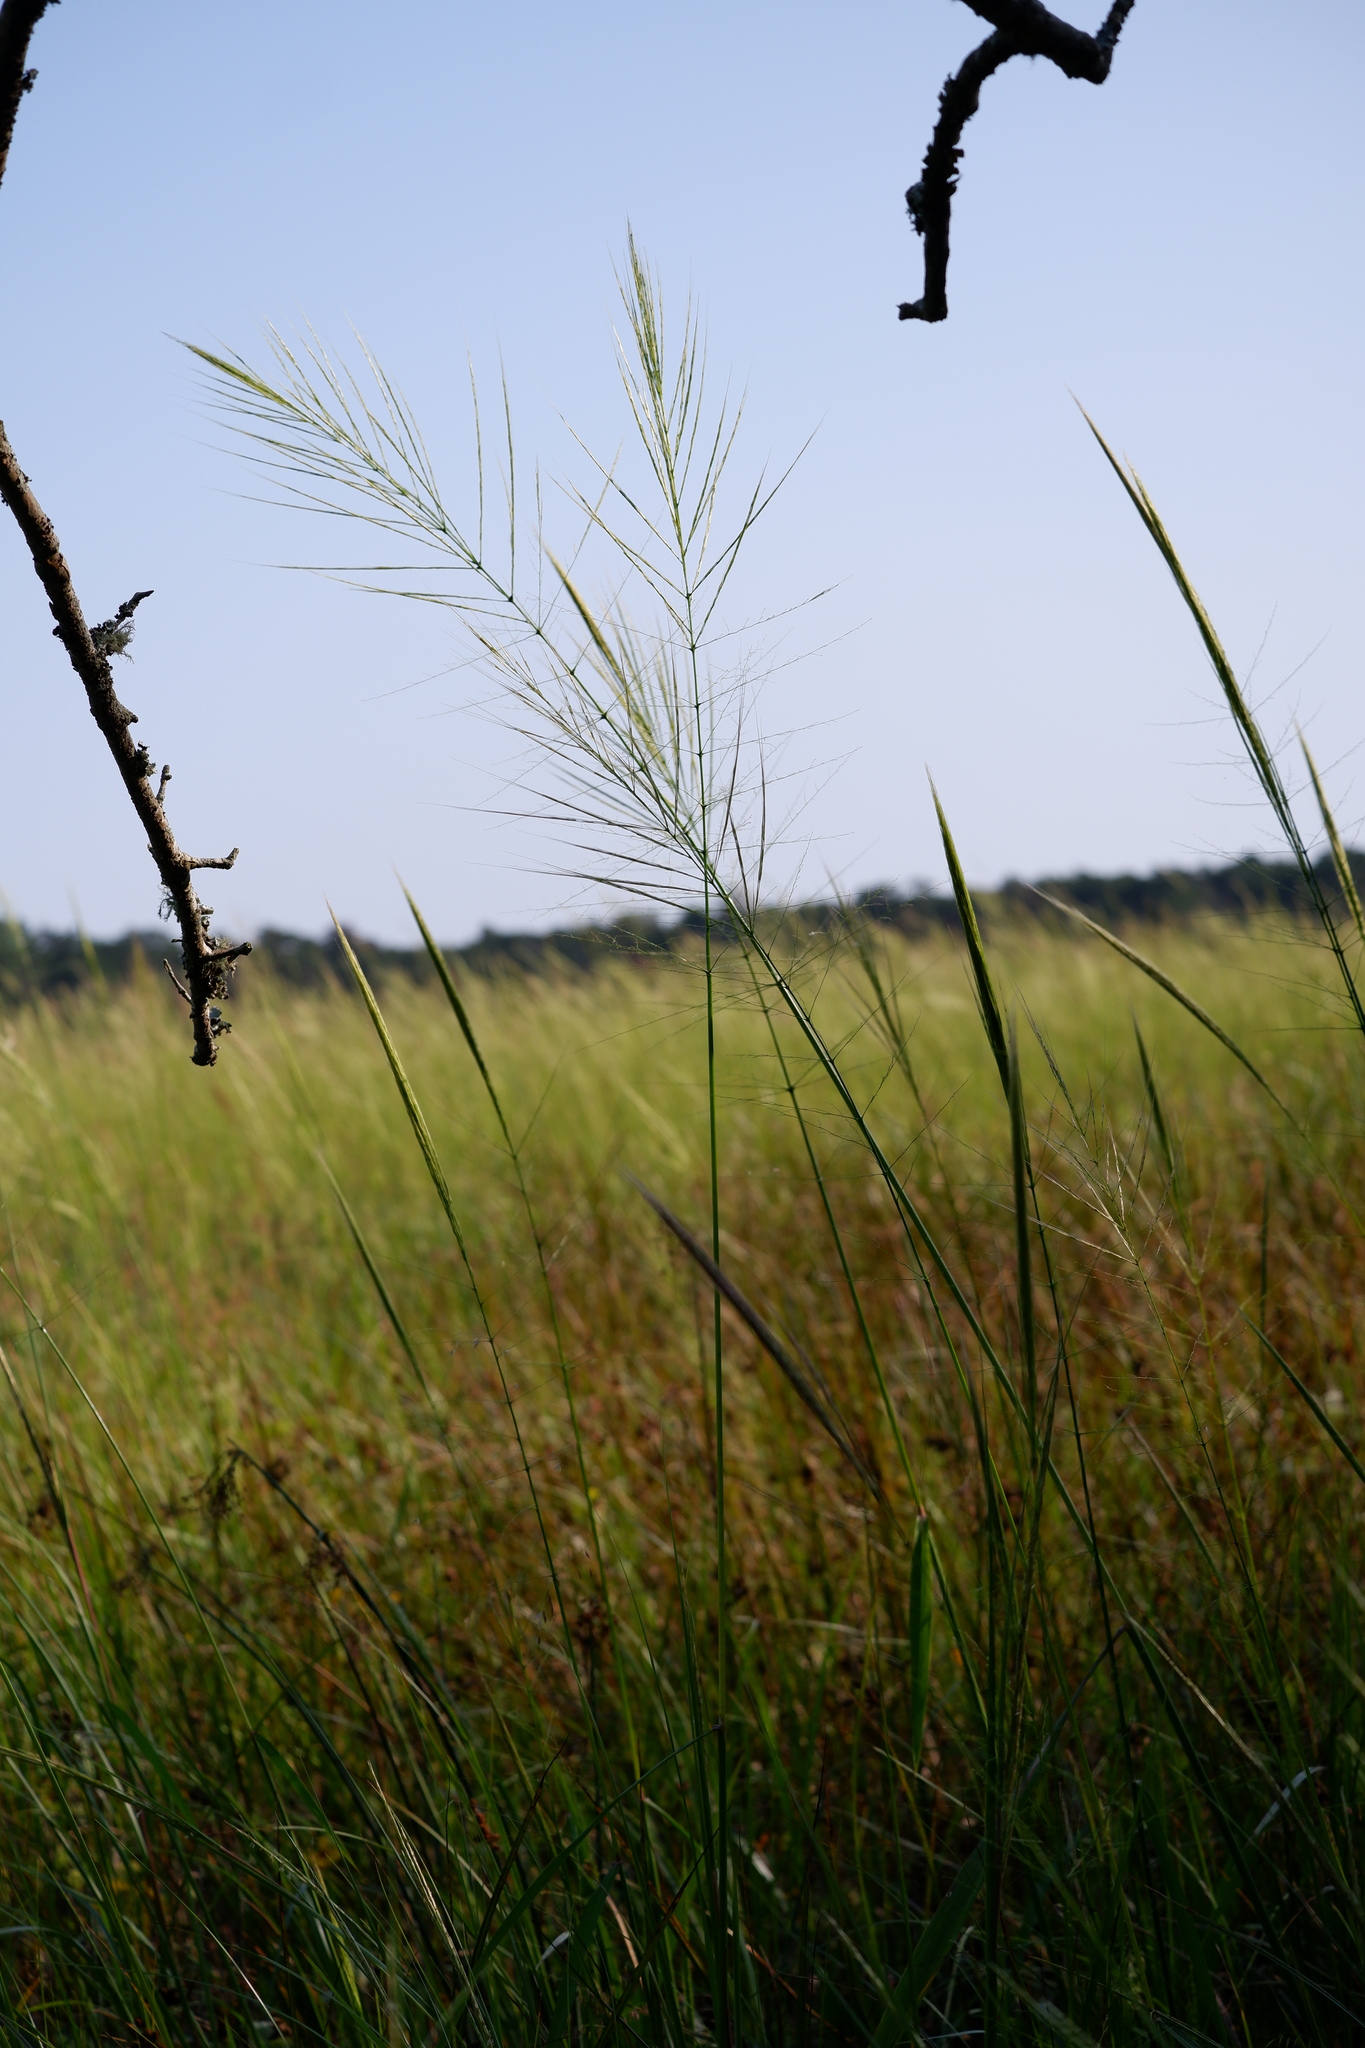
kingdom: Plantae
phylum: Tracheophyta
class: Liliopsida
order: Poales
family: Poaceae
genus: Zizania
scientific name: Zizania aquatica
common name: Annual wildrice
